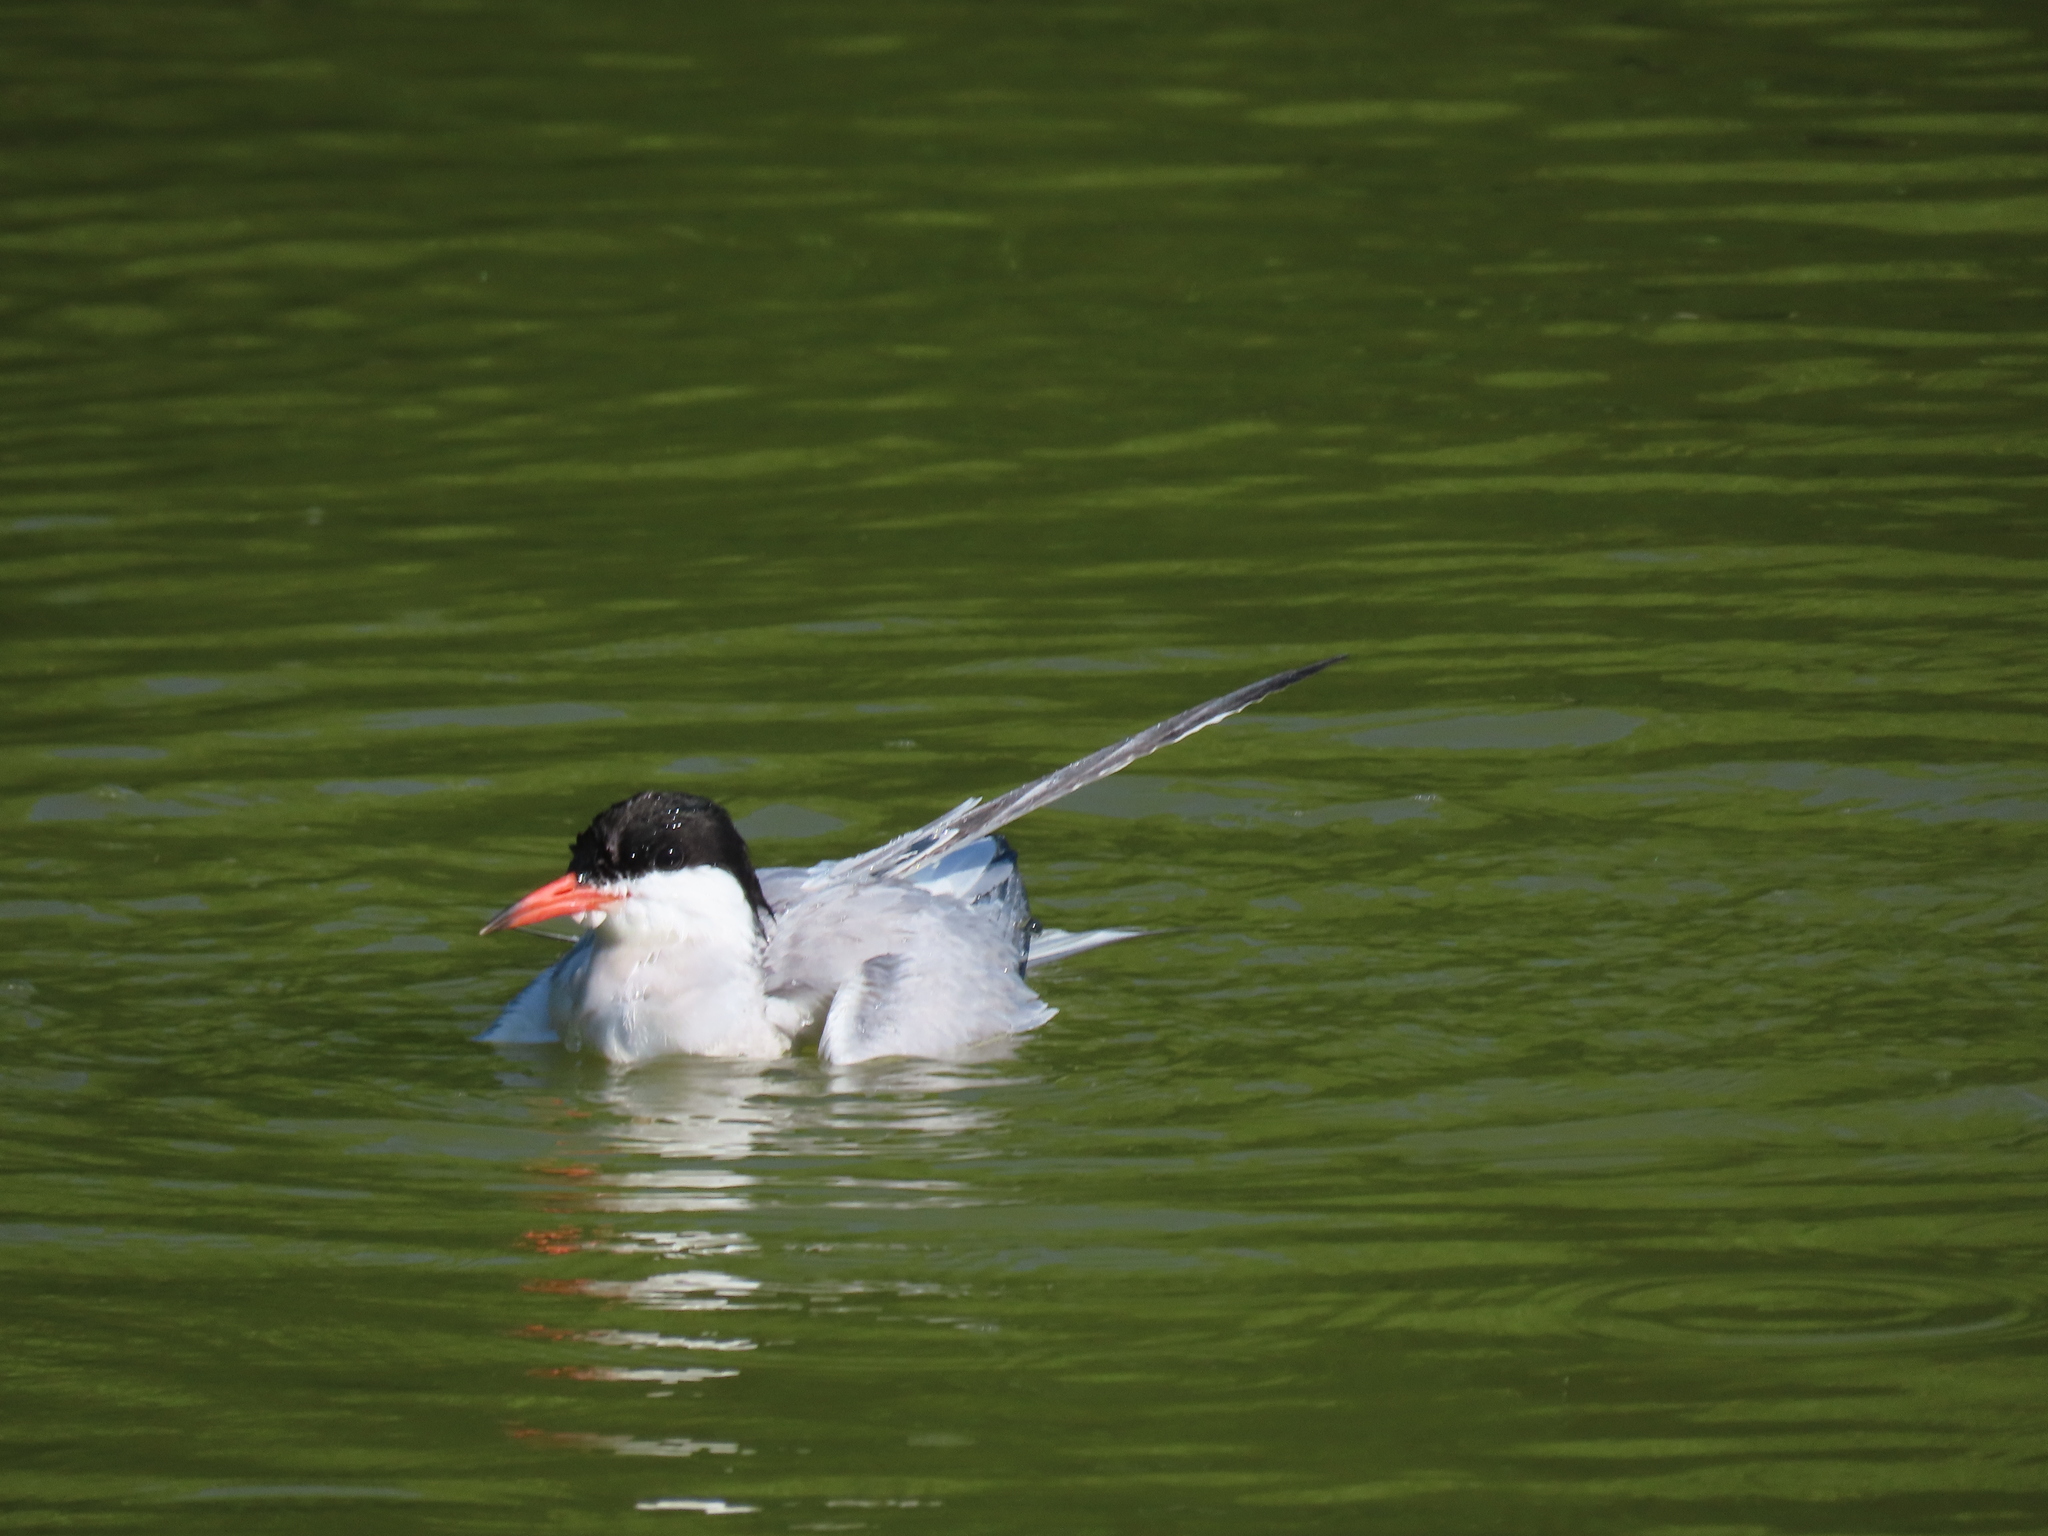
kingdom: Animalia
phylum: Chordata
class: Aves
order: Charadriiformes
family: Laridae
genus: Sterna
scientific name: Sterna forsteri
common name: Forster's tern
